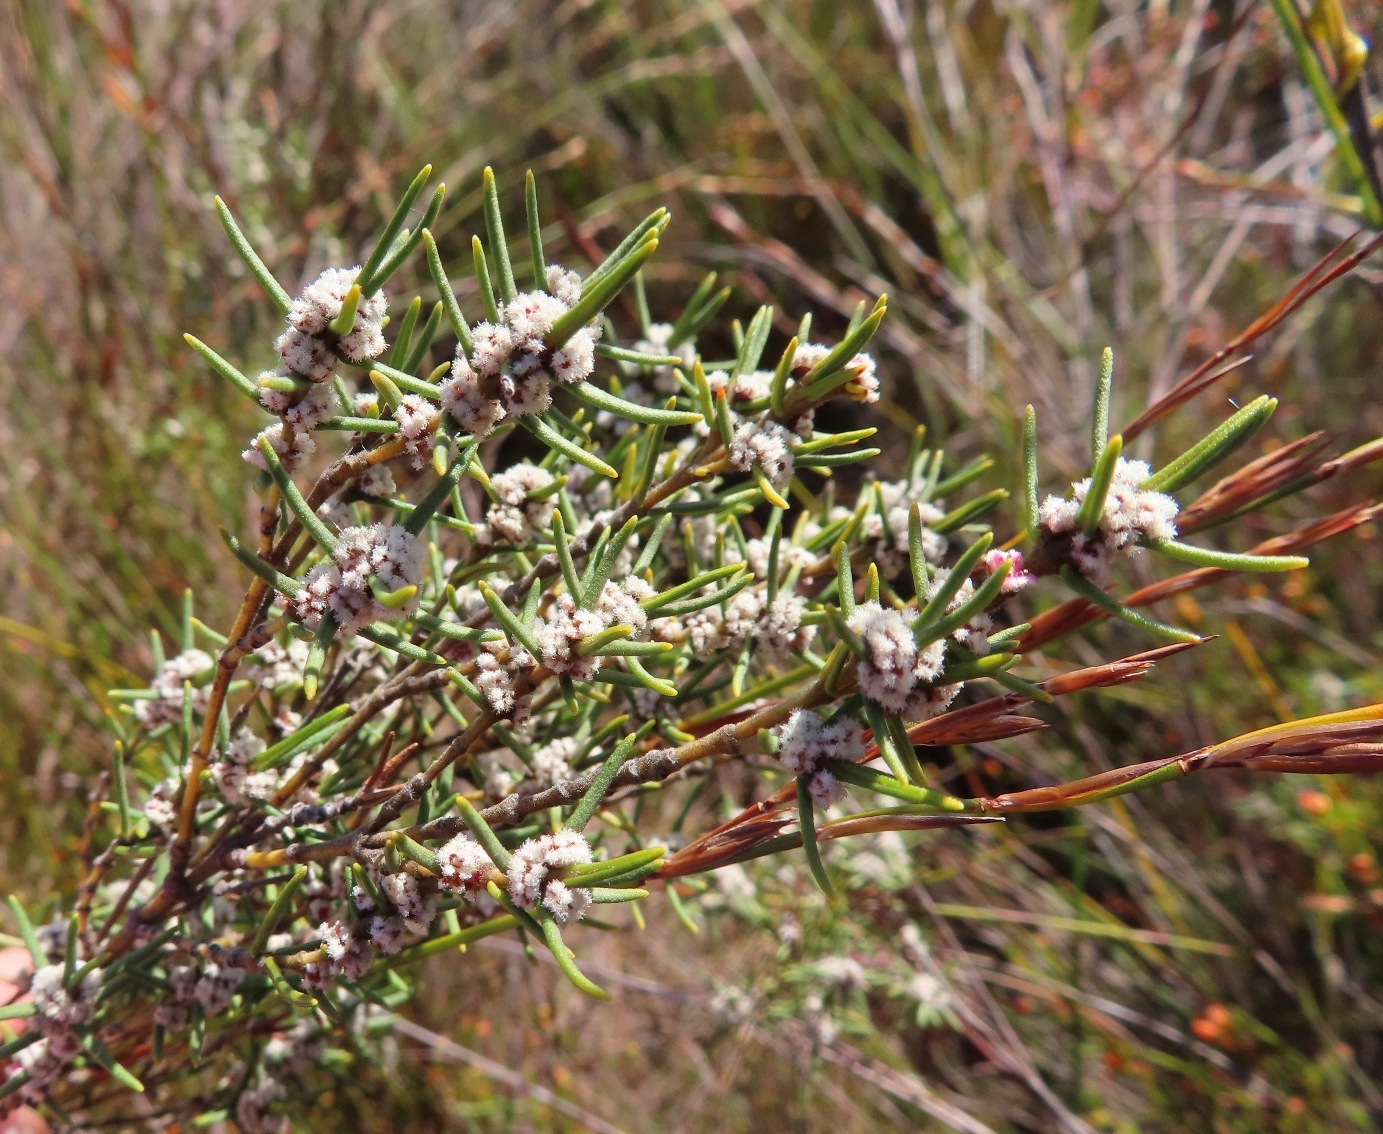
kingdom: Plantae
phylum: Tracheophyta
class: Magnoliopsida
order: Cornales
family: Grubbiaceae
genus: Grubbia
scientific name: Grubbia rosmarinifolia
